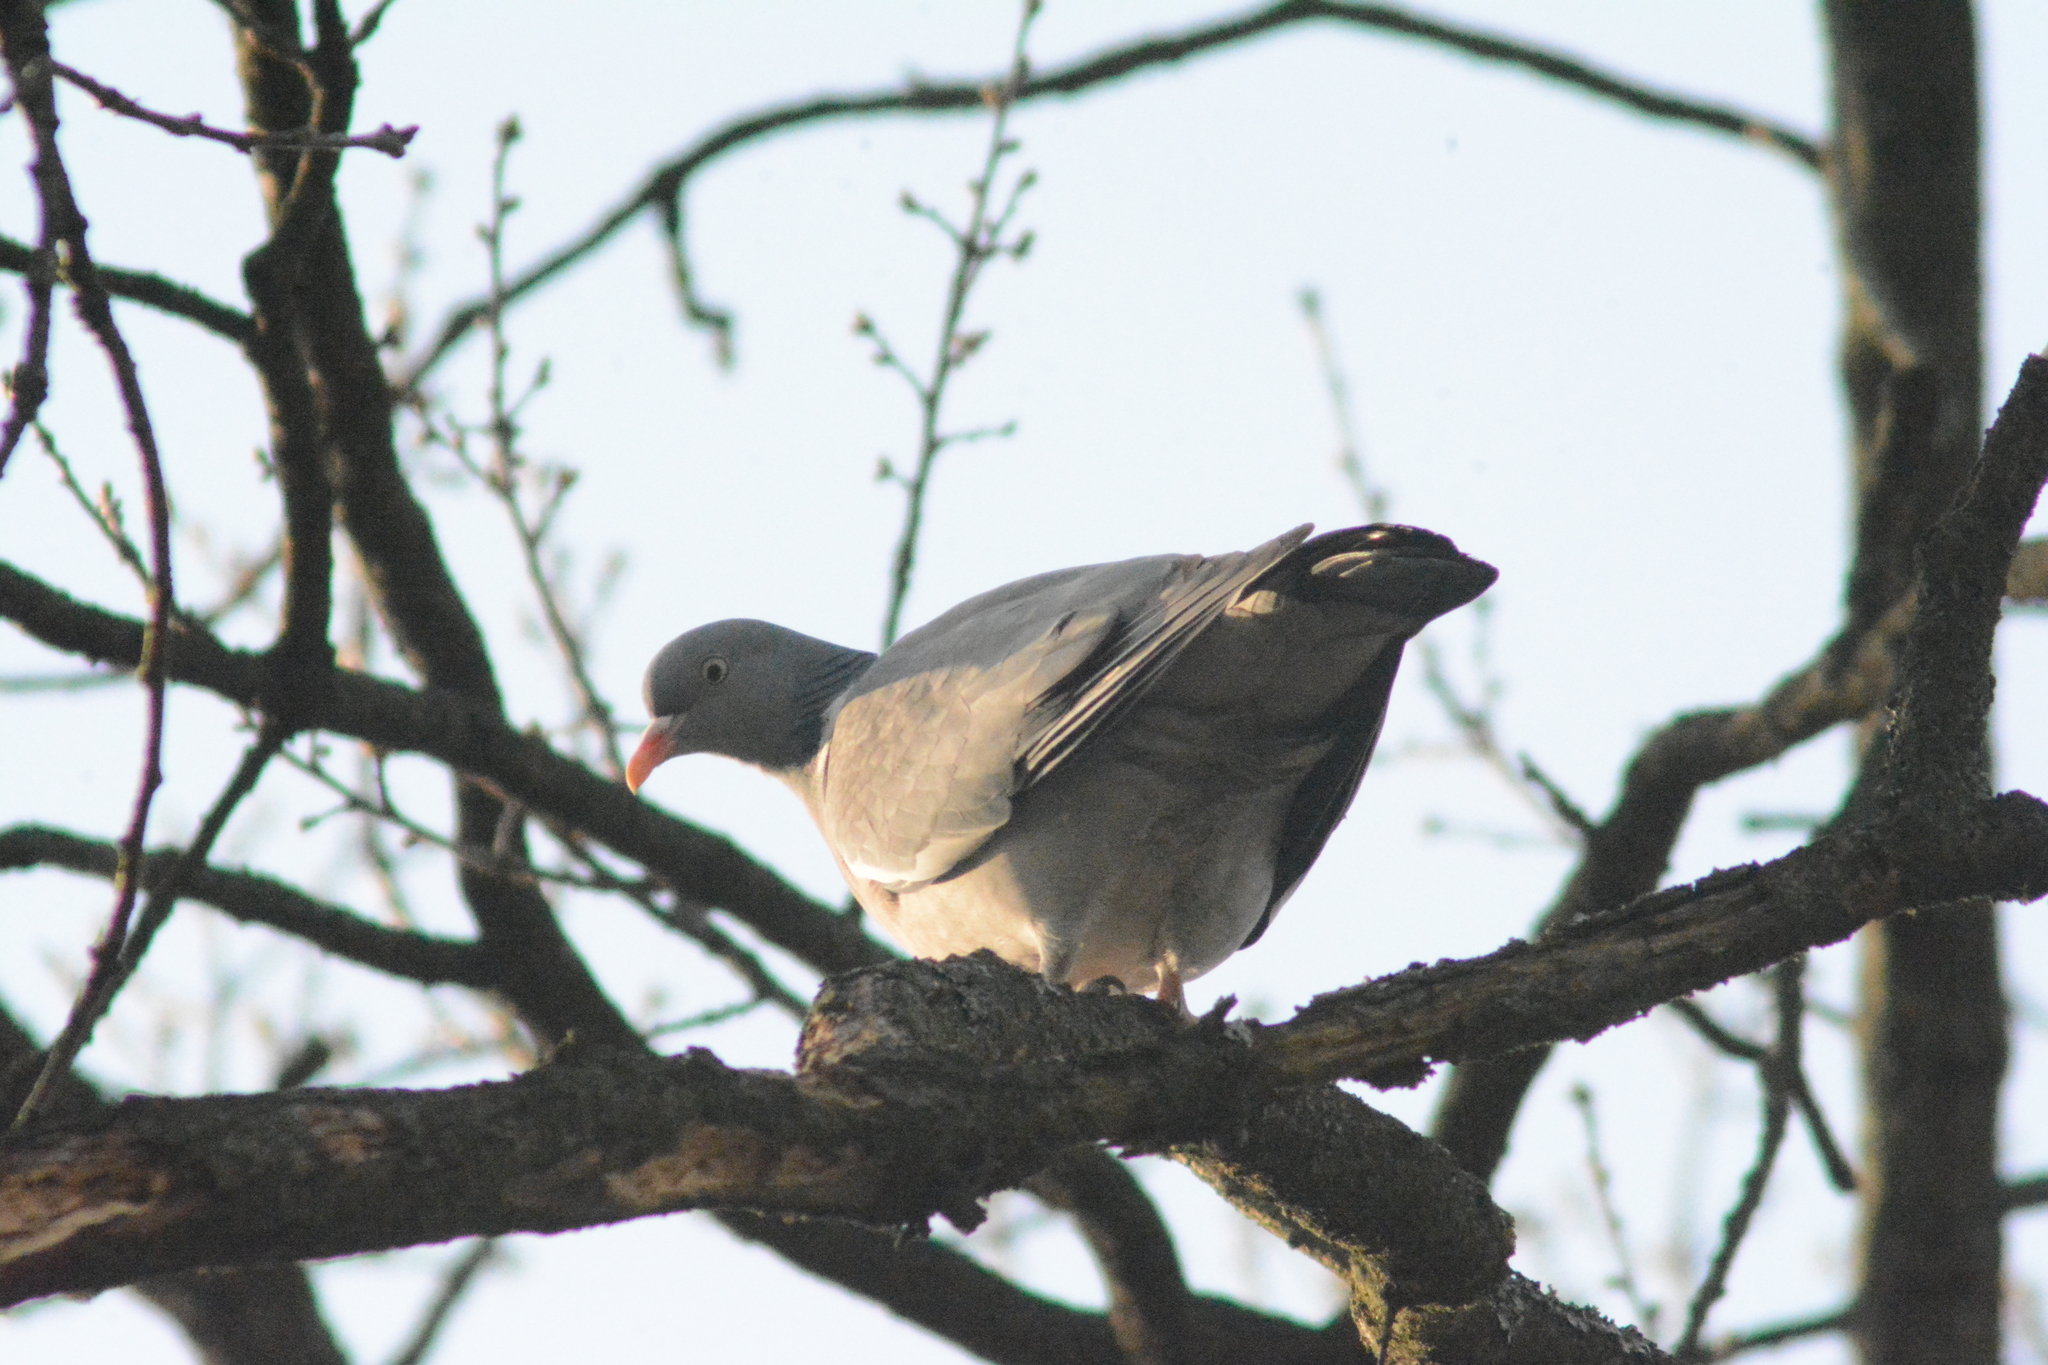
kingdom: Animalia
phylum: Chordata
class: Aves
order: Columbiformes
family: Columbidae
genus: Columba
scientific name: Columba palumbus
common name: Common wood pigeon
